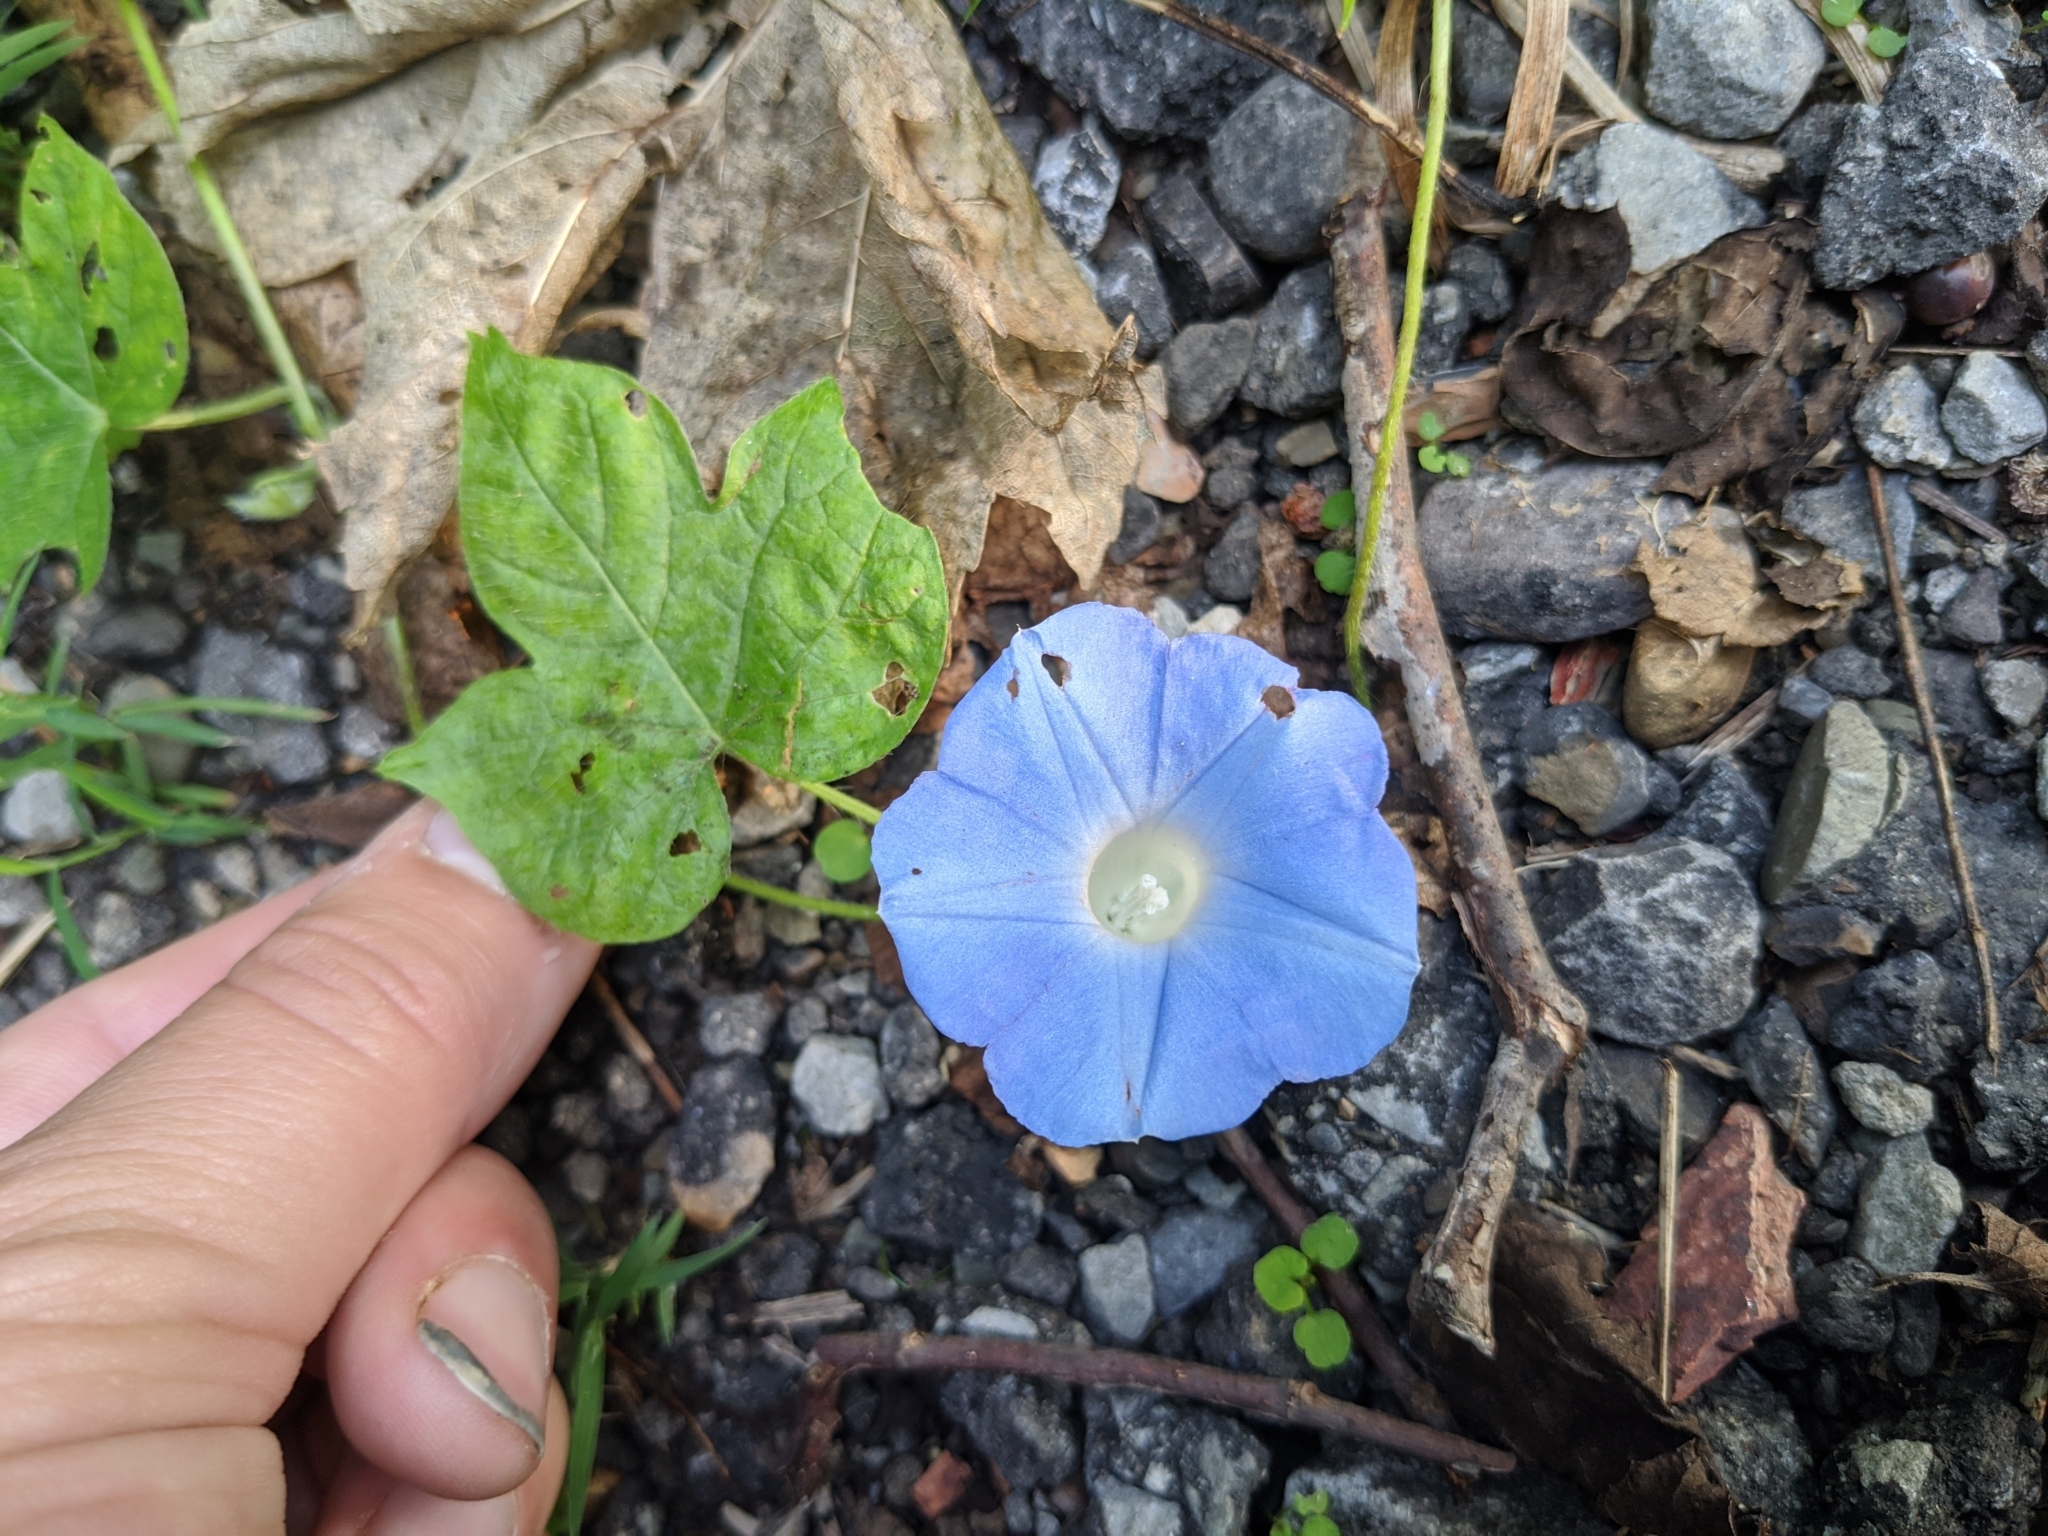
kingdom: Plantae
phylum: Tracheophyta
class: Magnoliopsida
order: Solanales
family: Convolvulaceae
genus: Ipomoea
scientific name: Ipomoea hederacea
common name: Ivy-leaved morning-glory
